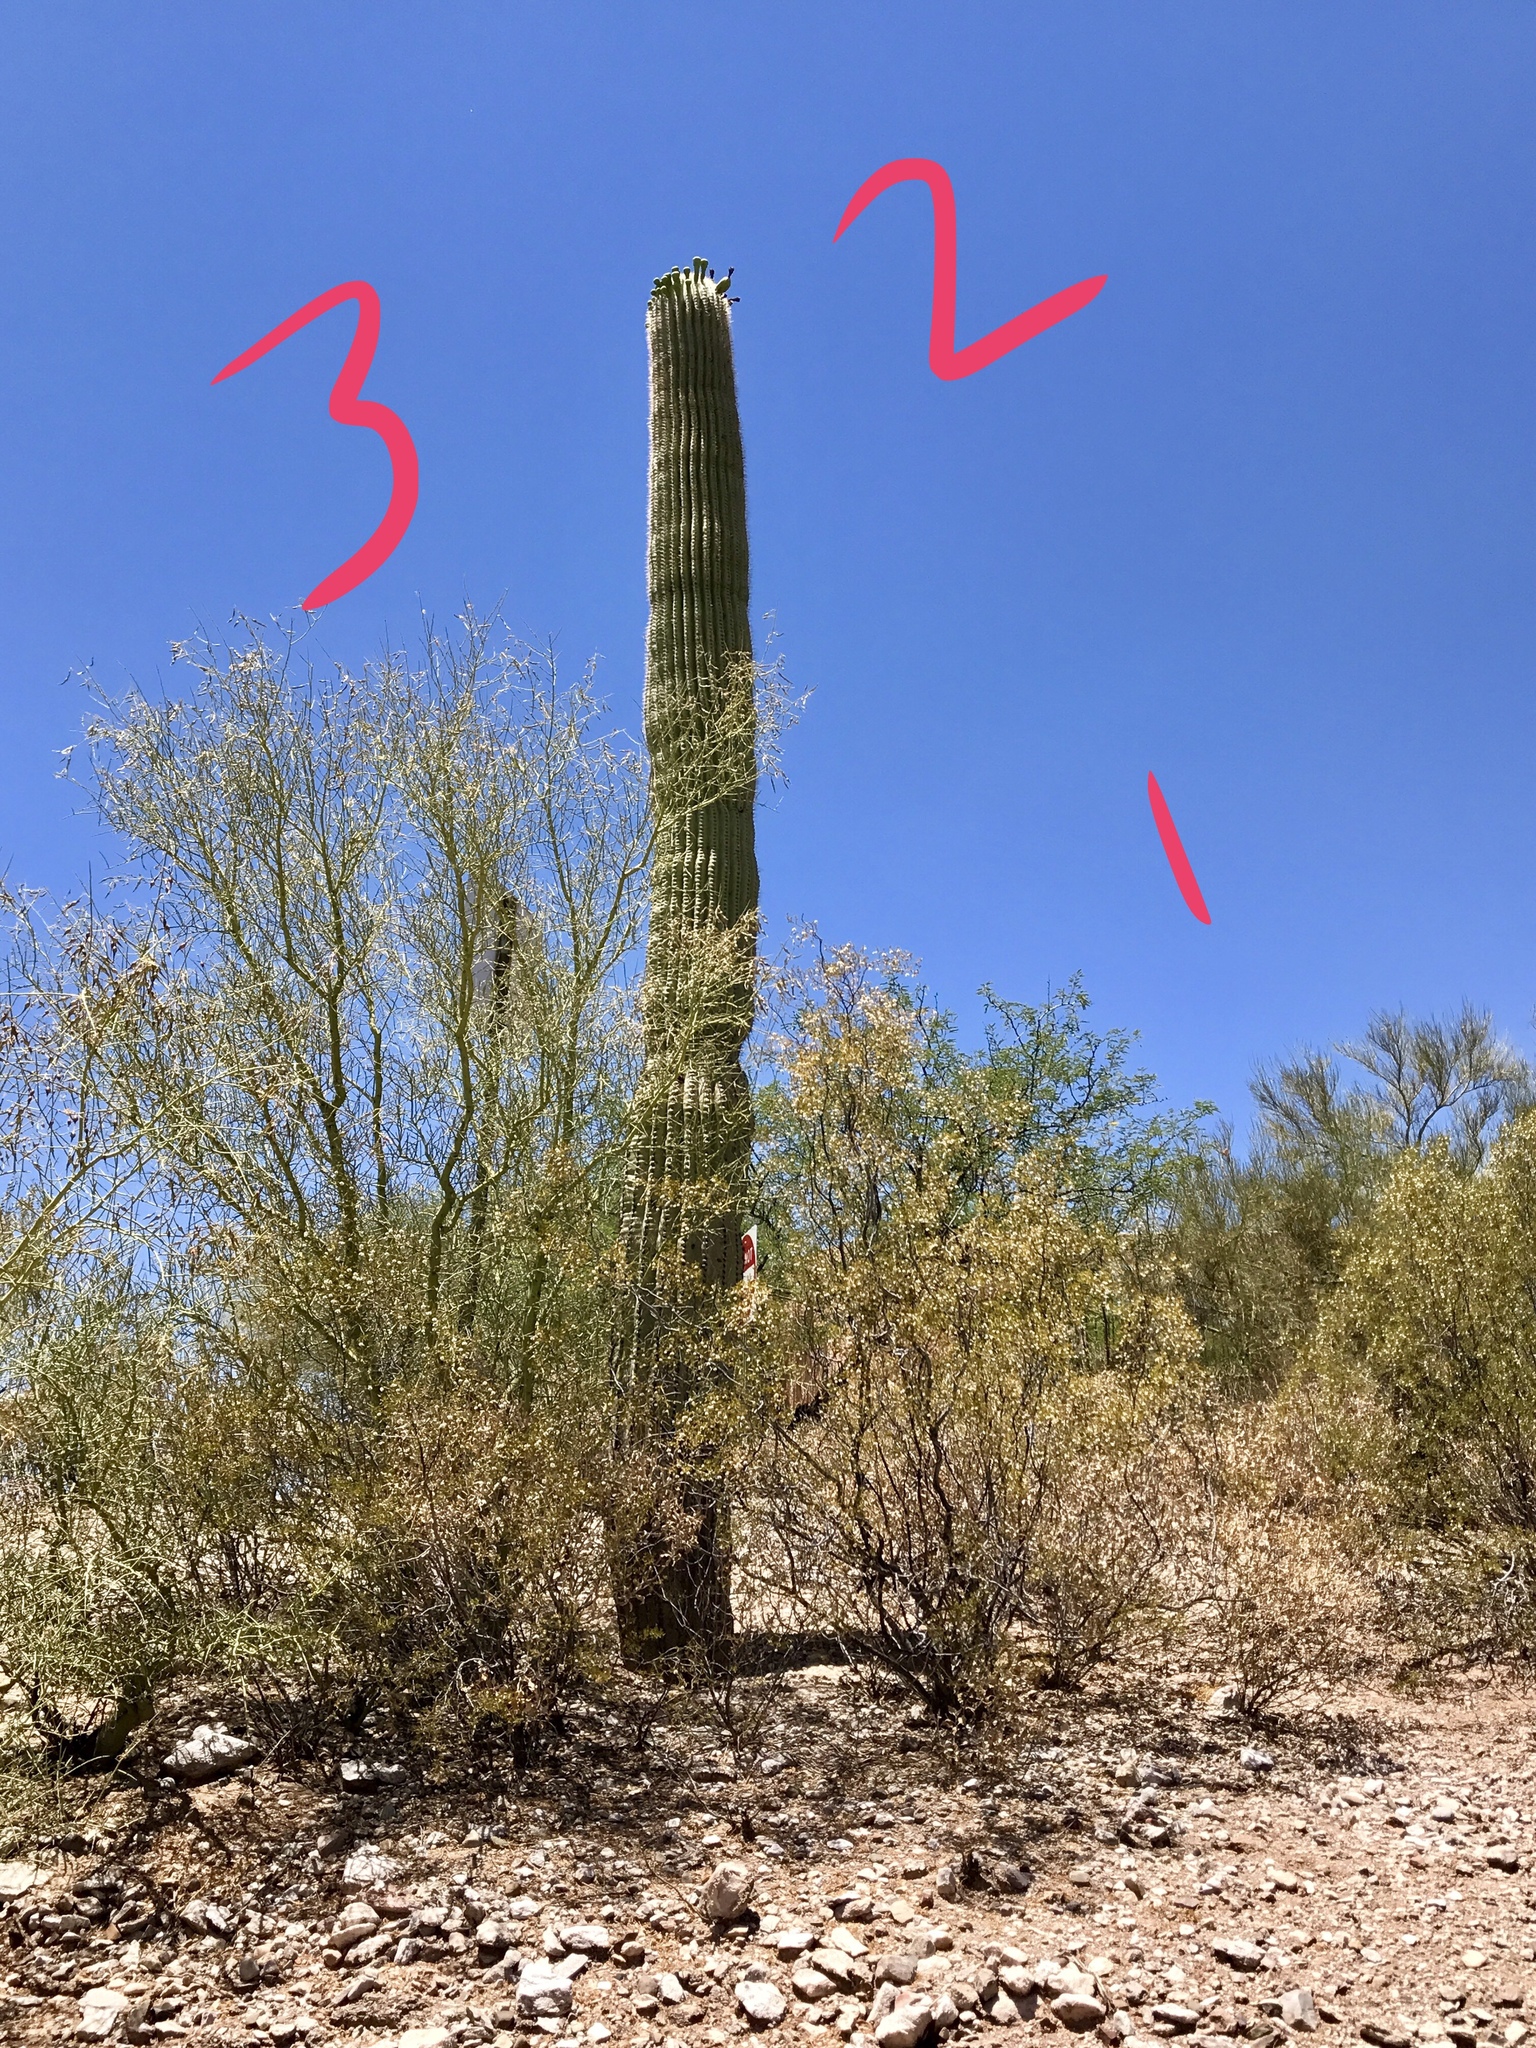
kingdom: Plantae
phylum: Tracheophyta
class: Magnoliopsida
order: Caryophyllales
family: Cactaceae
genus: Carnegiea
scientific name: Carnegiea gigantea
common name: Saguaro
